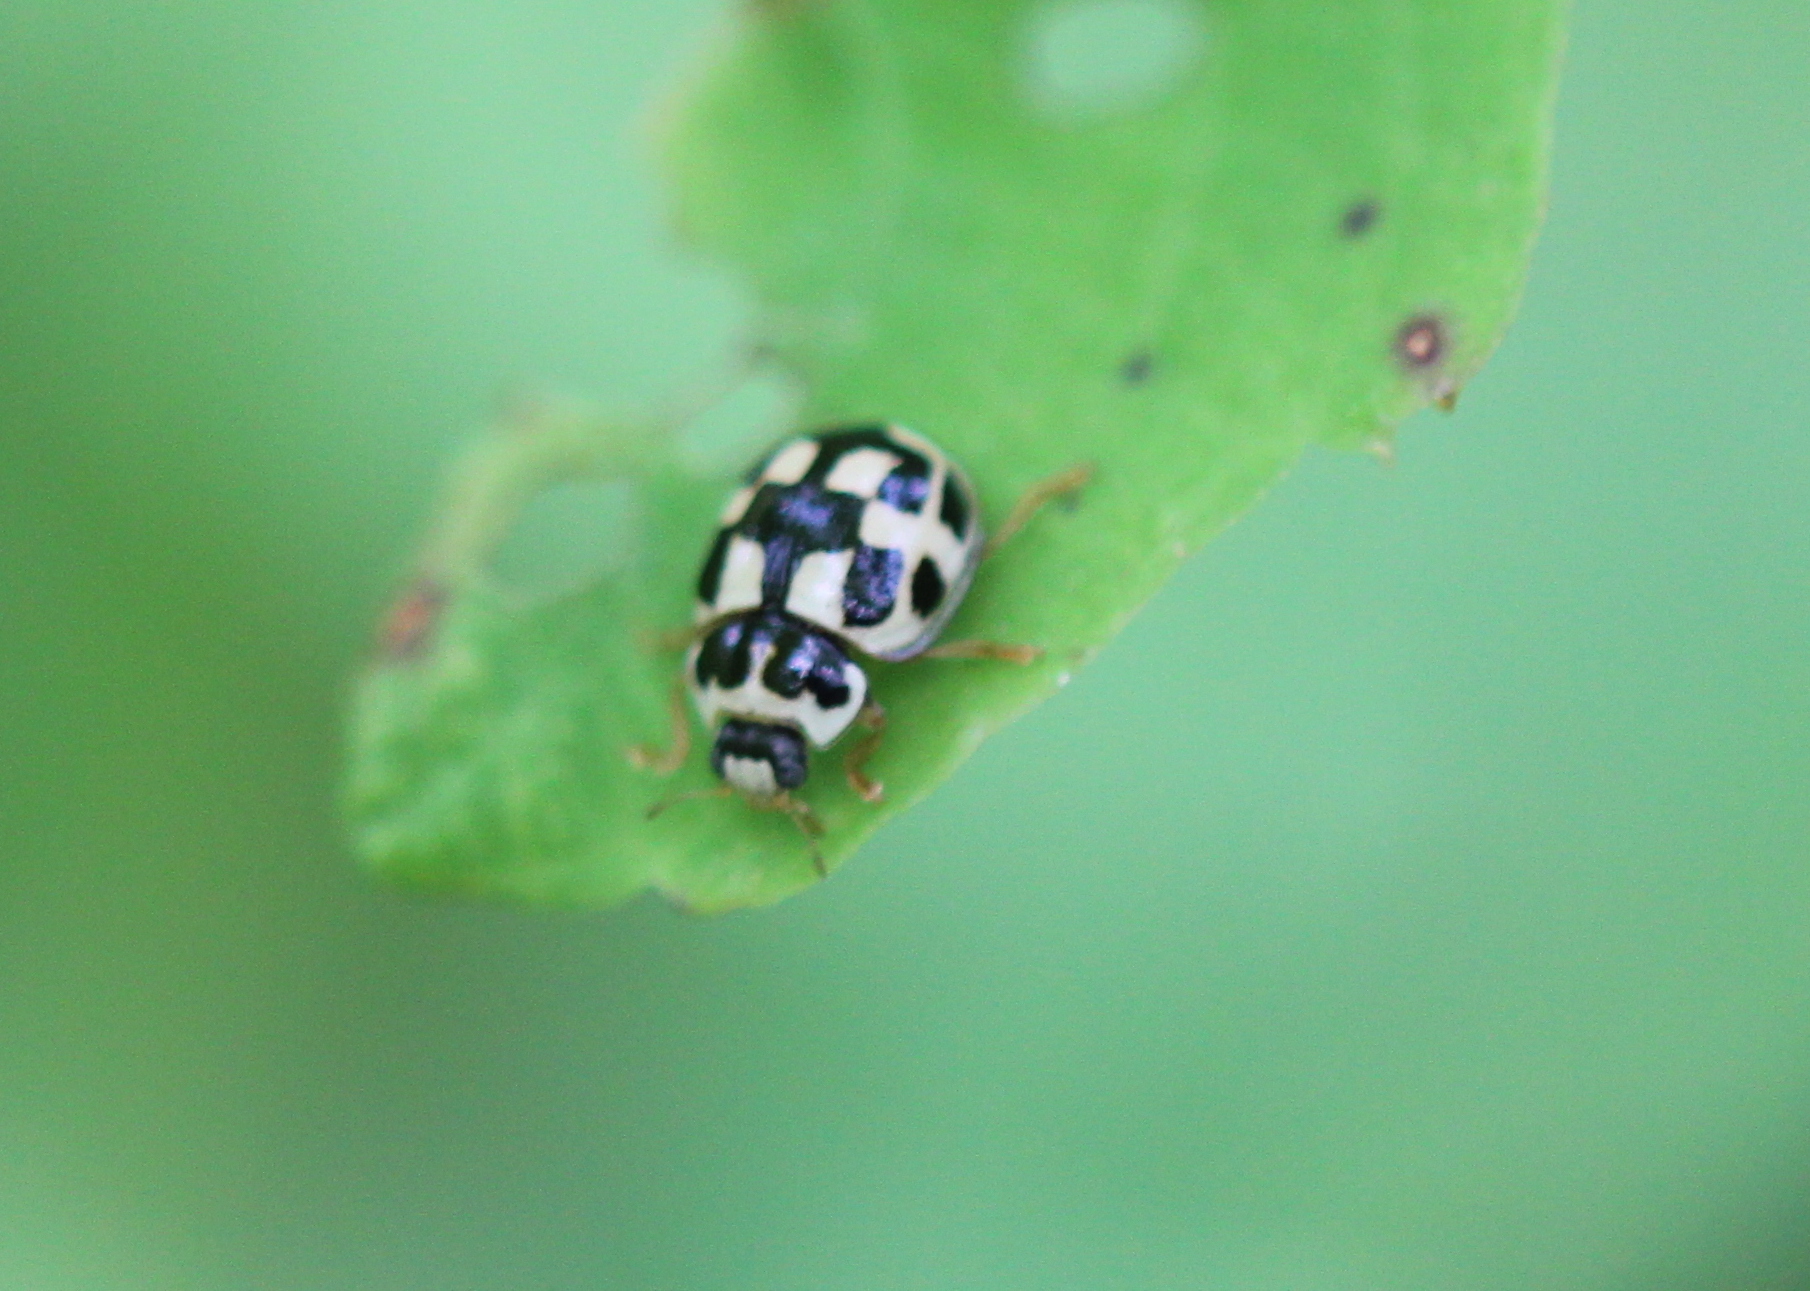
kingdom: Animalia
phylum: Arthropoda
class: Insecta
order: Coleoptera
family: Coccinellidae
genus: Propylaea
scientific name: Propylaea quatuordecimpunctata
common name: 14-spotted ladybird beetle
